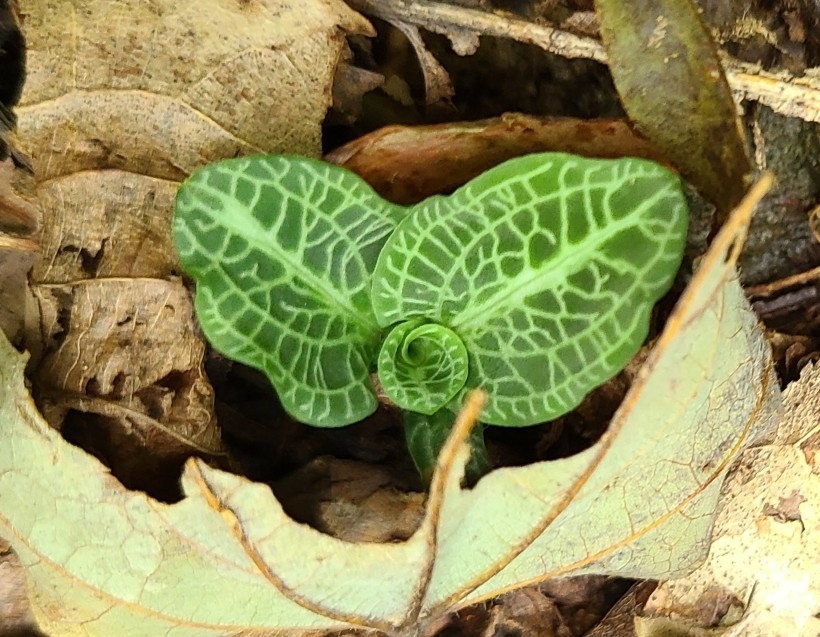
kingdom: Plantae
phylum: Tracheophyta
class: Liliopsida
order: Asparagales
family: Orchidaceae
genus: Goodyera
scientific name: Goodyera pubescens
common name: Downy rattlesnake-plantain
